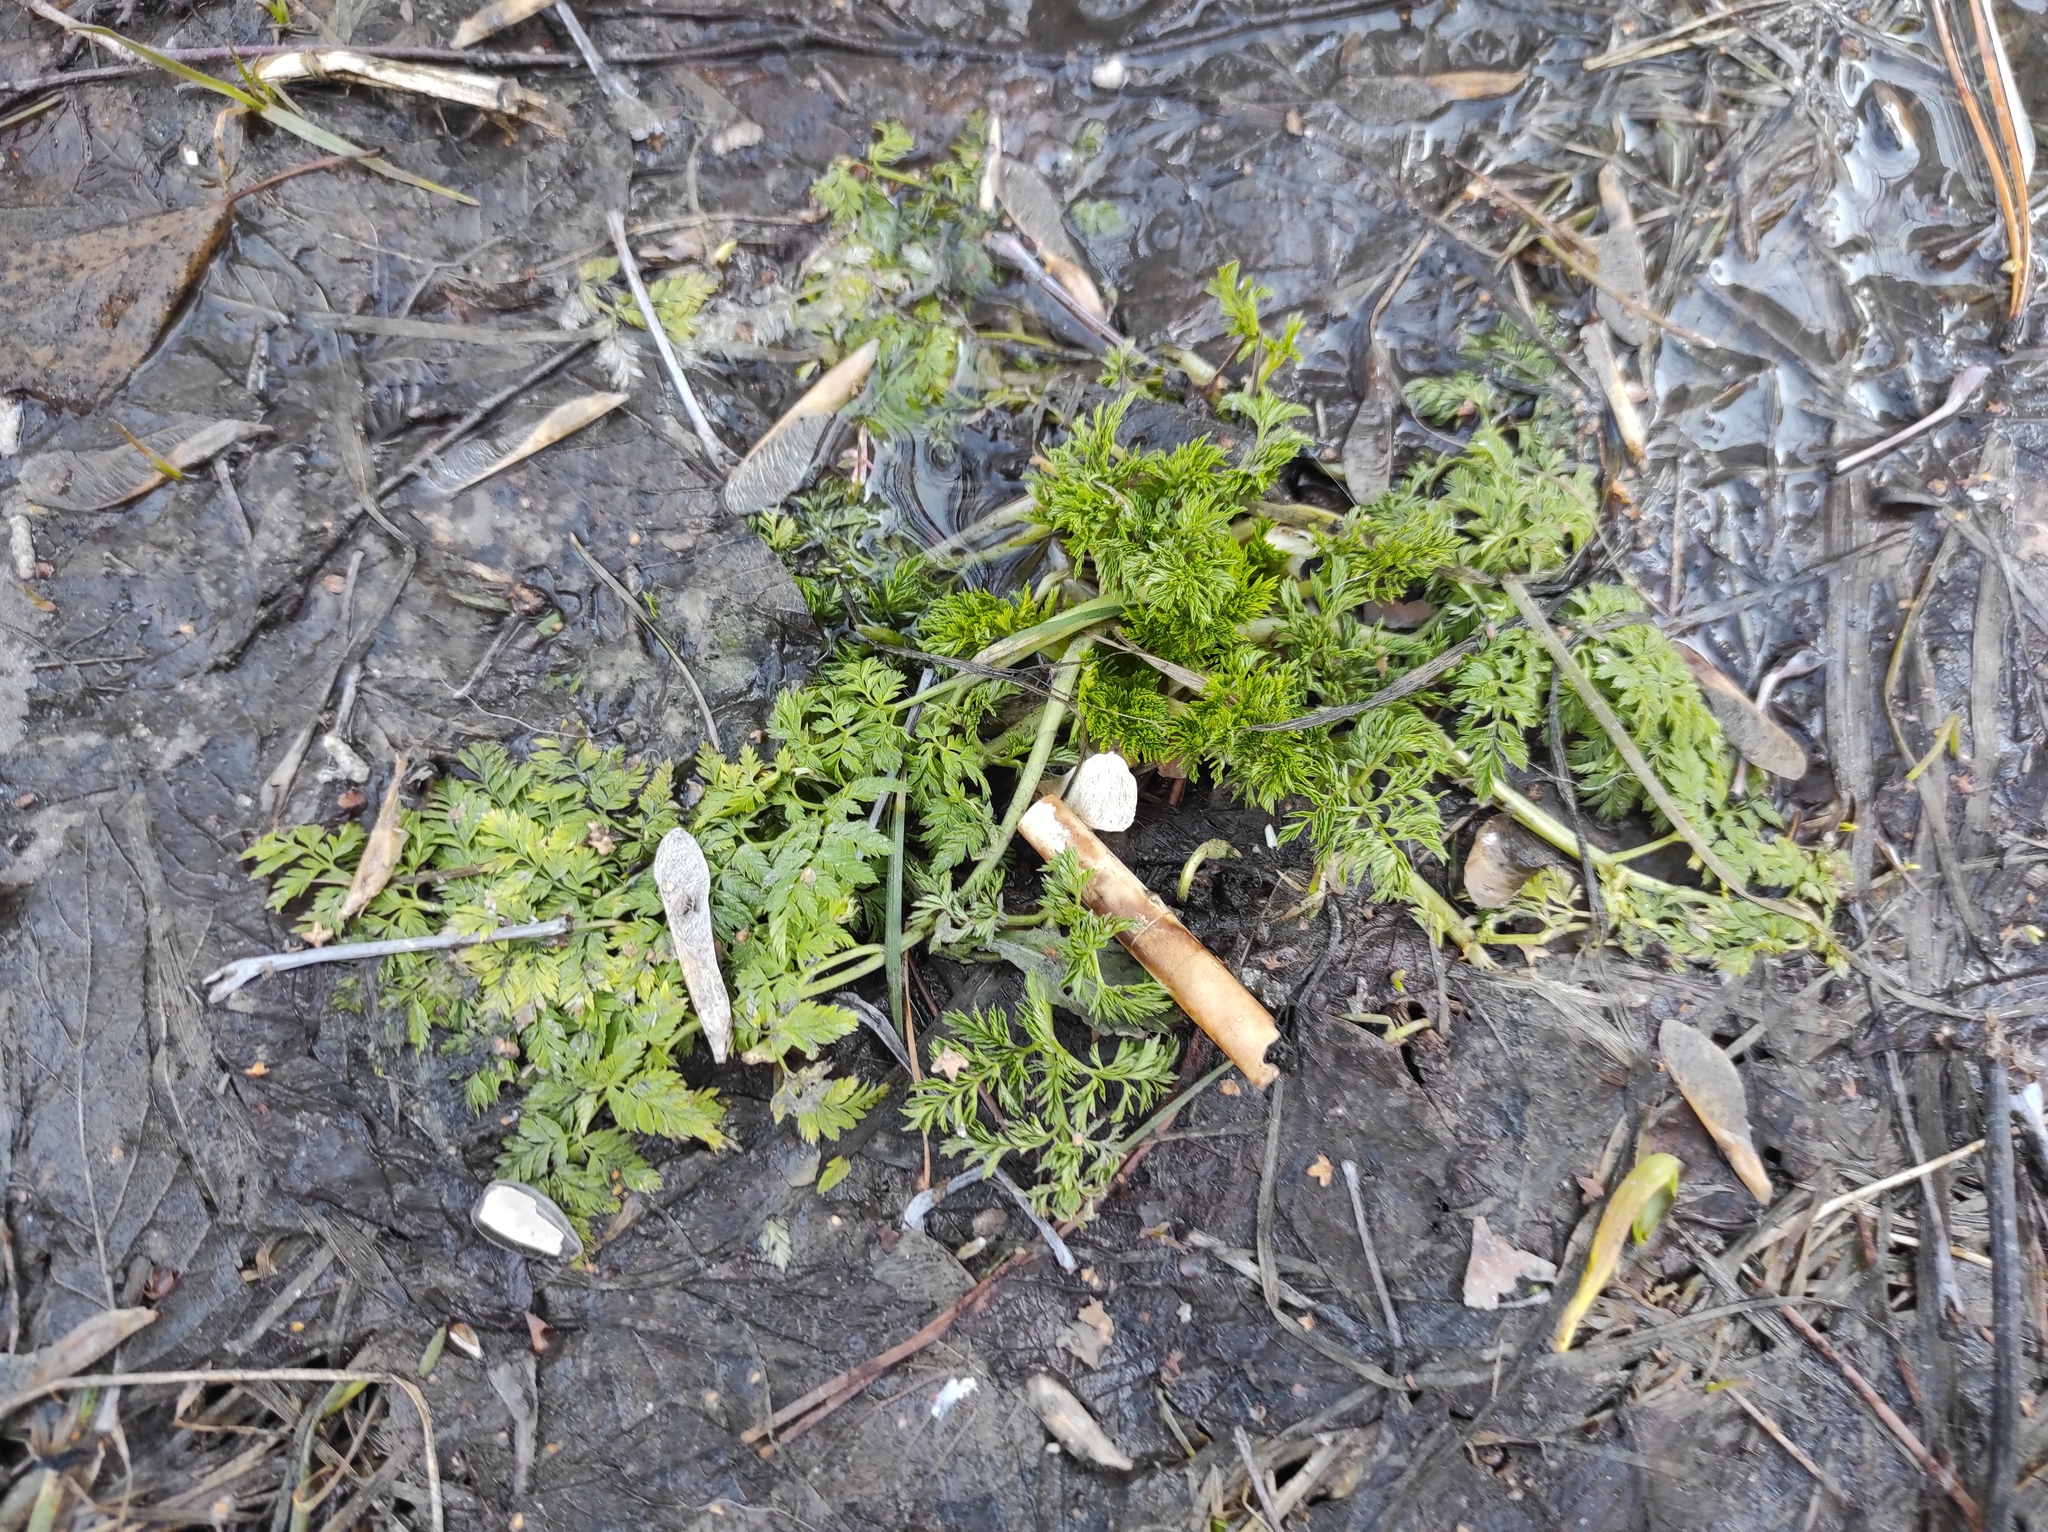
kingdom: Plantae
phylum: Tracheophyta
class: Magnoliopsida
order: Apiales
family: Apiaceae
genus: Anthriscus
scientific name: Anthriscus sylvestris
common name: Cow parsley
